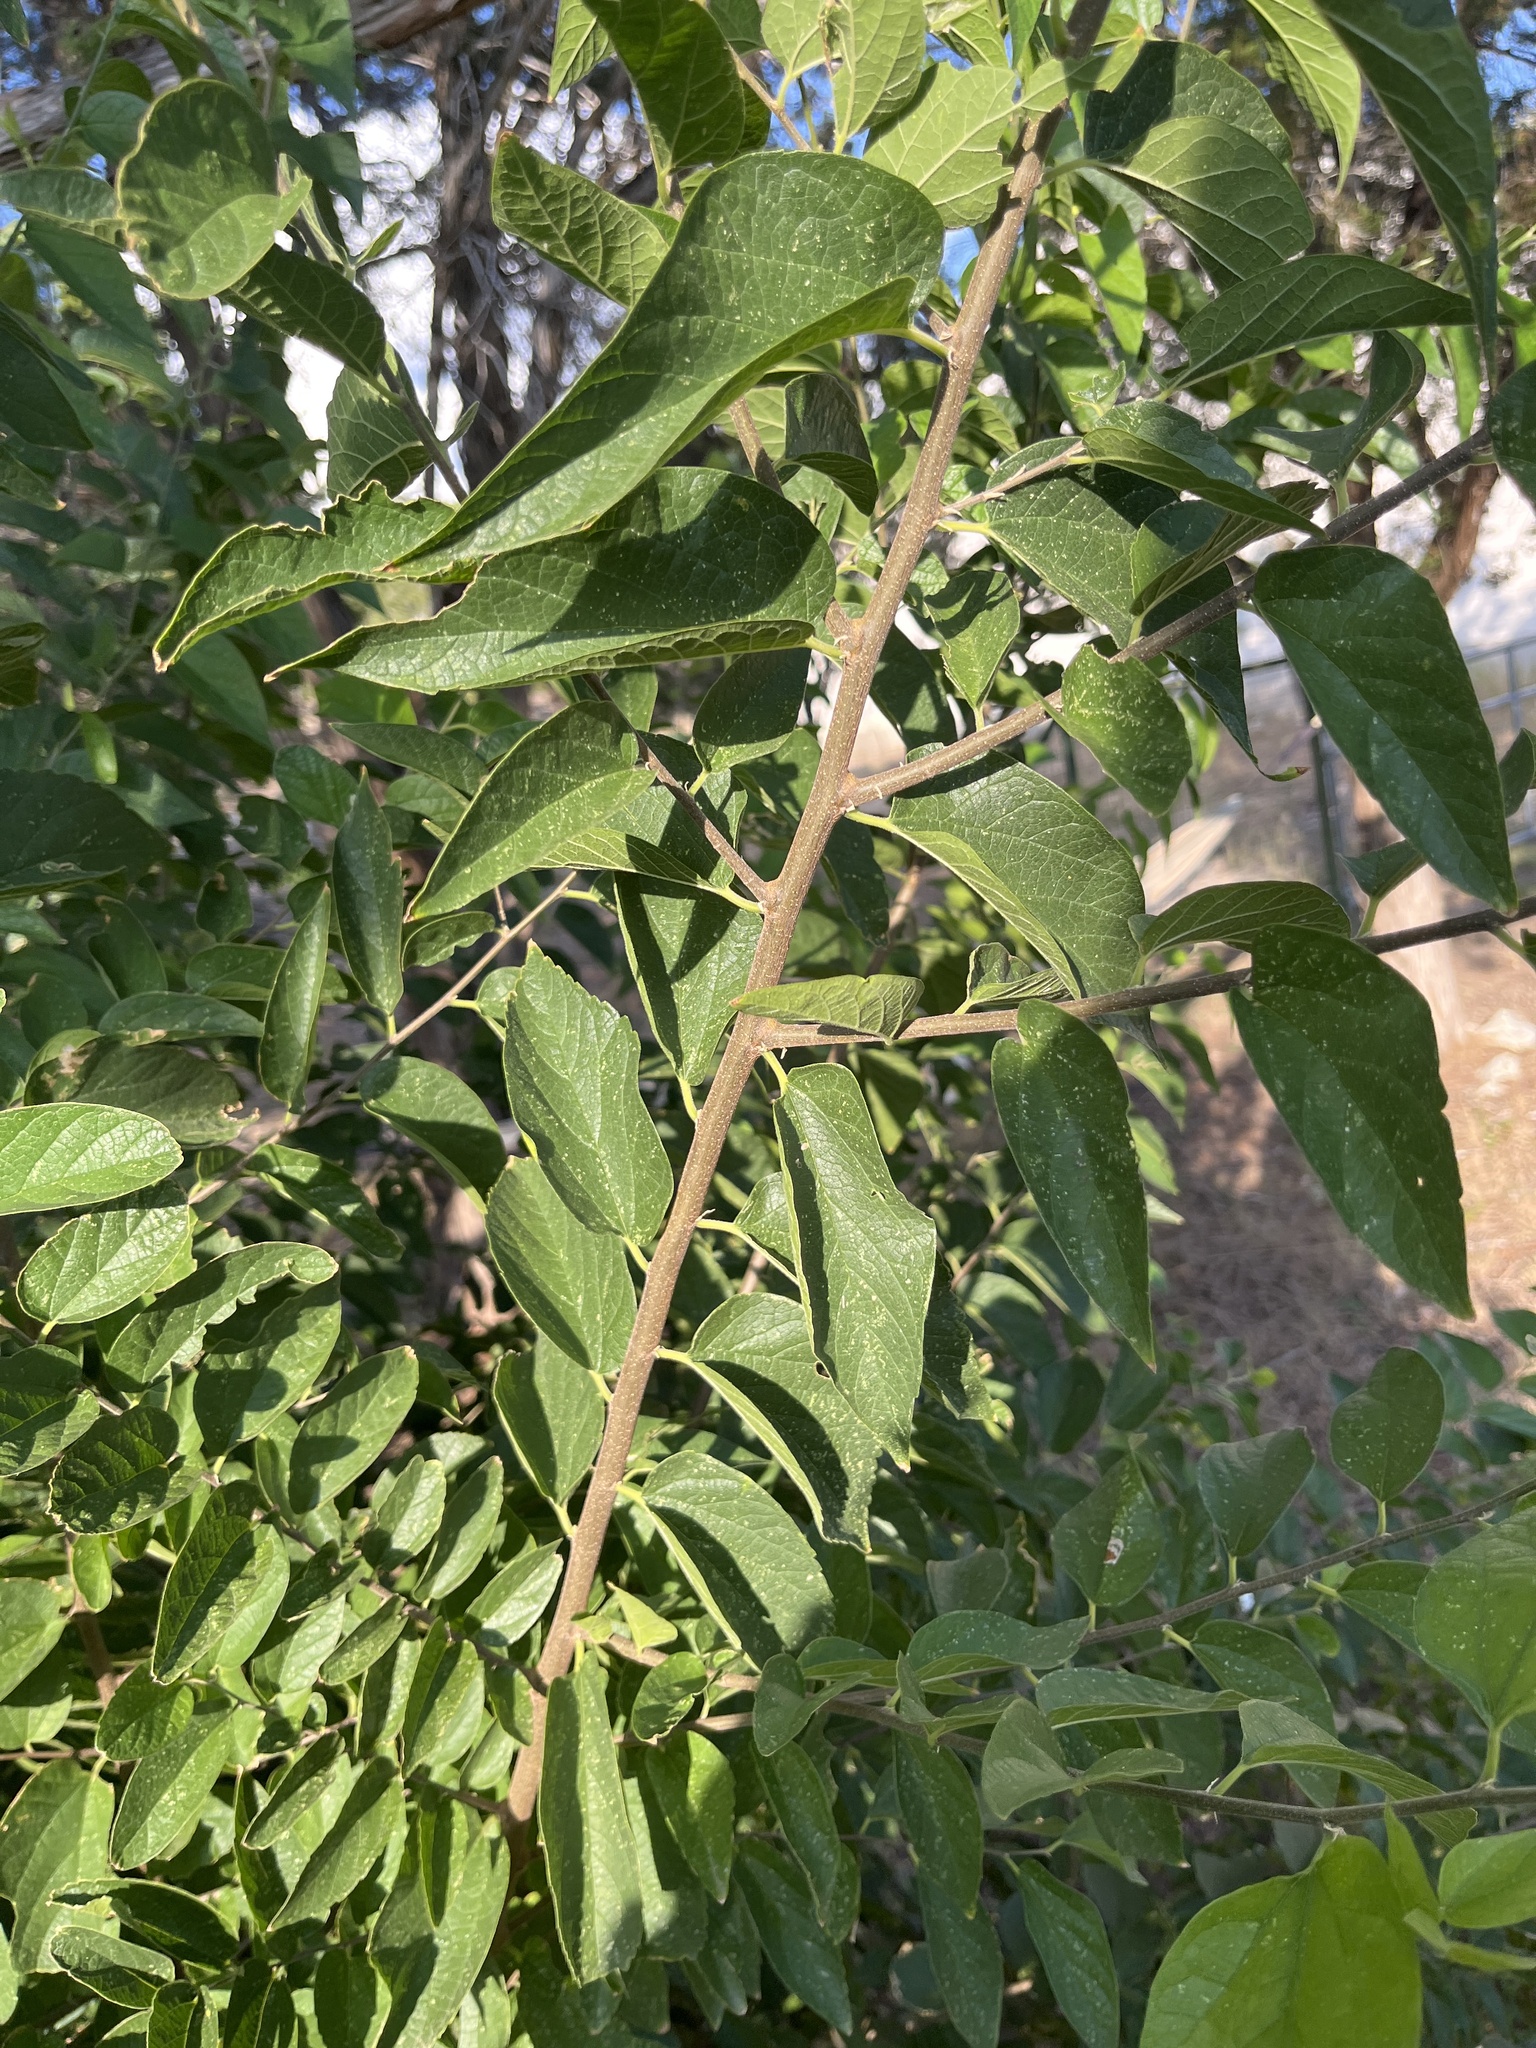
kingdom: Plantae
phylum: Tracheophyta
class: Magnoliopsida
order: Rosales
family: Cannabaceae
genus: Celtis
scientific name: Celtis reticulata
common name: Netleaf hackberry
